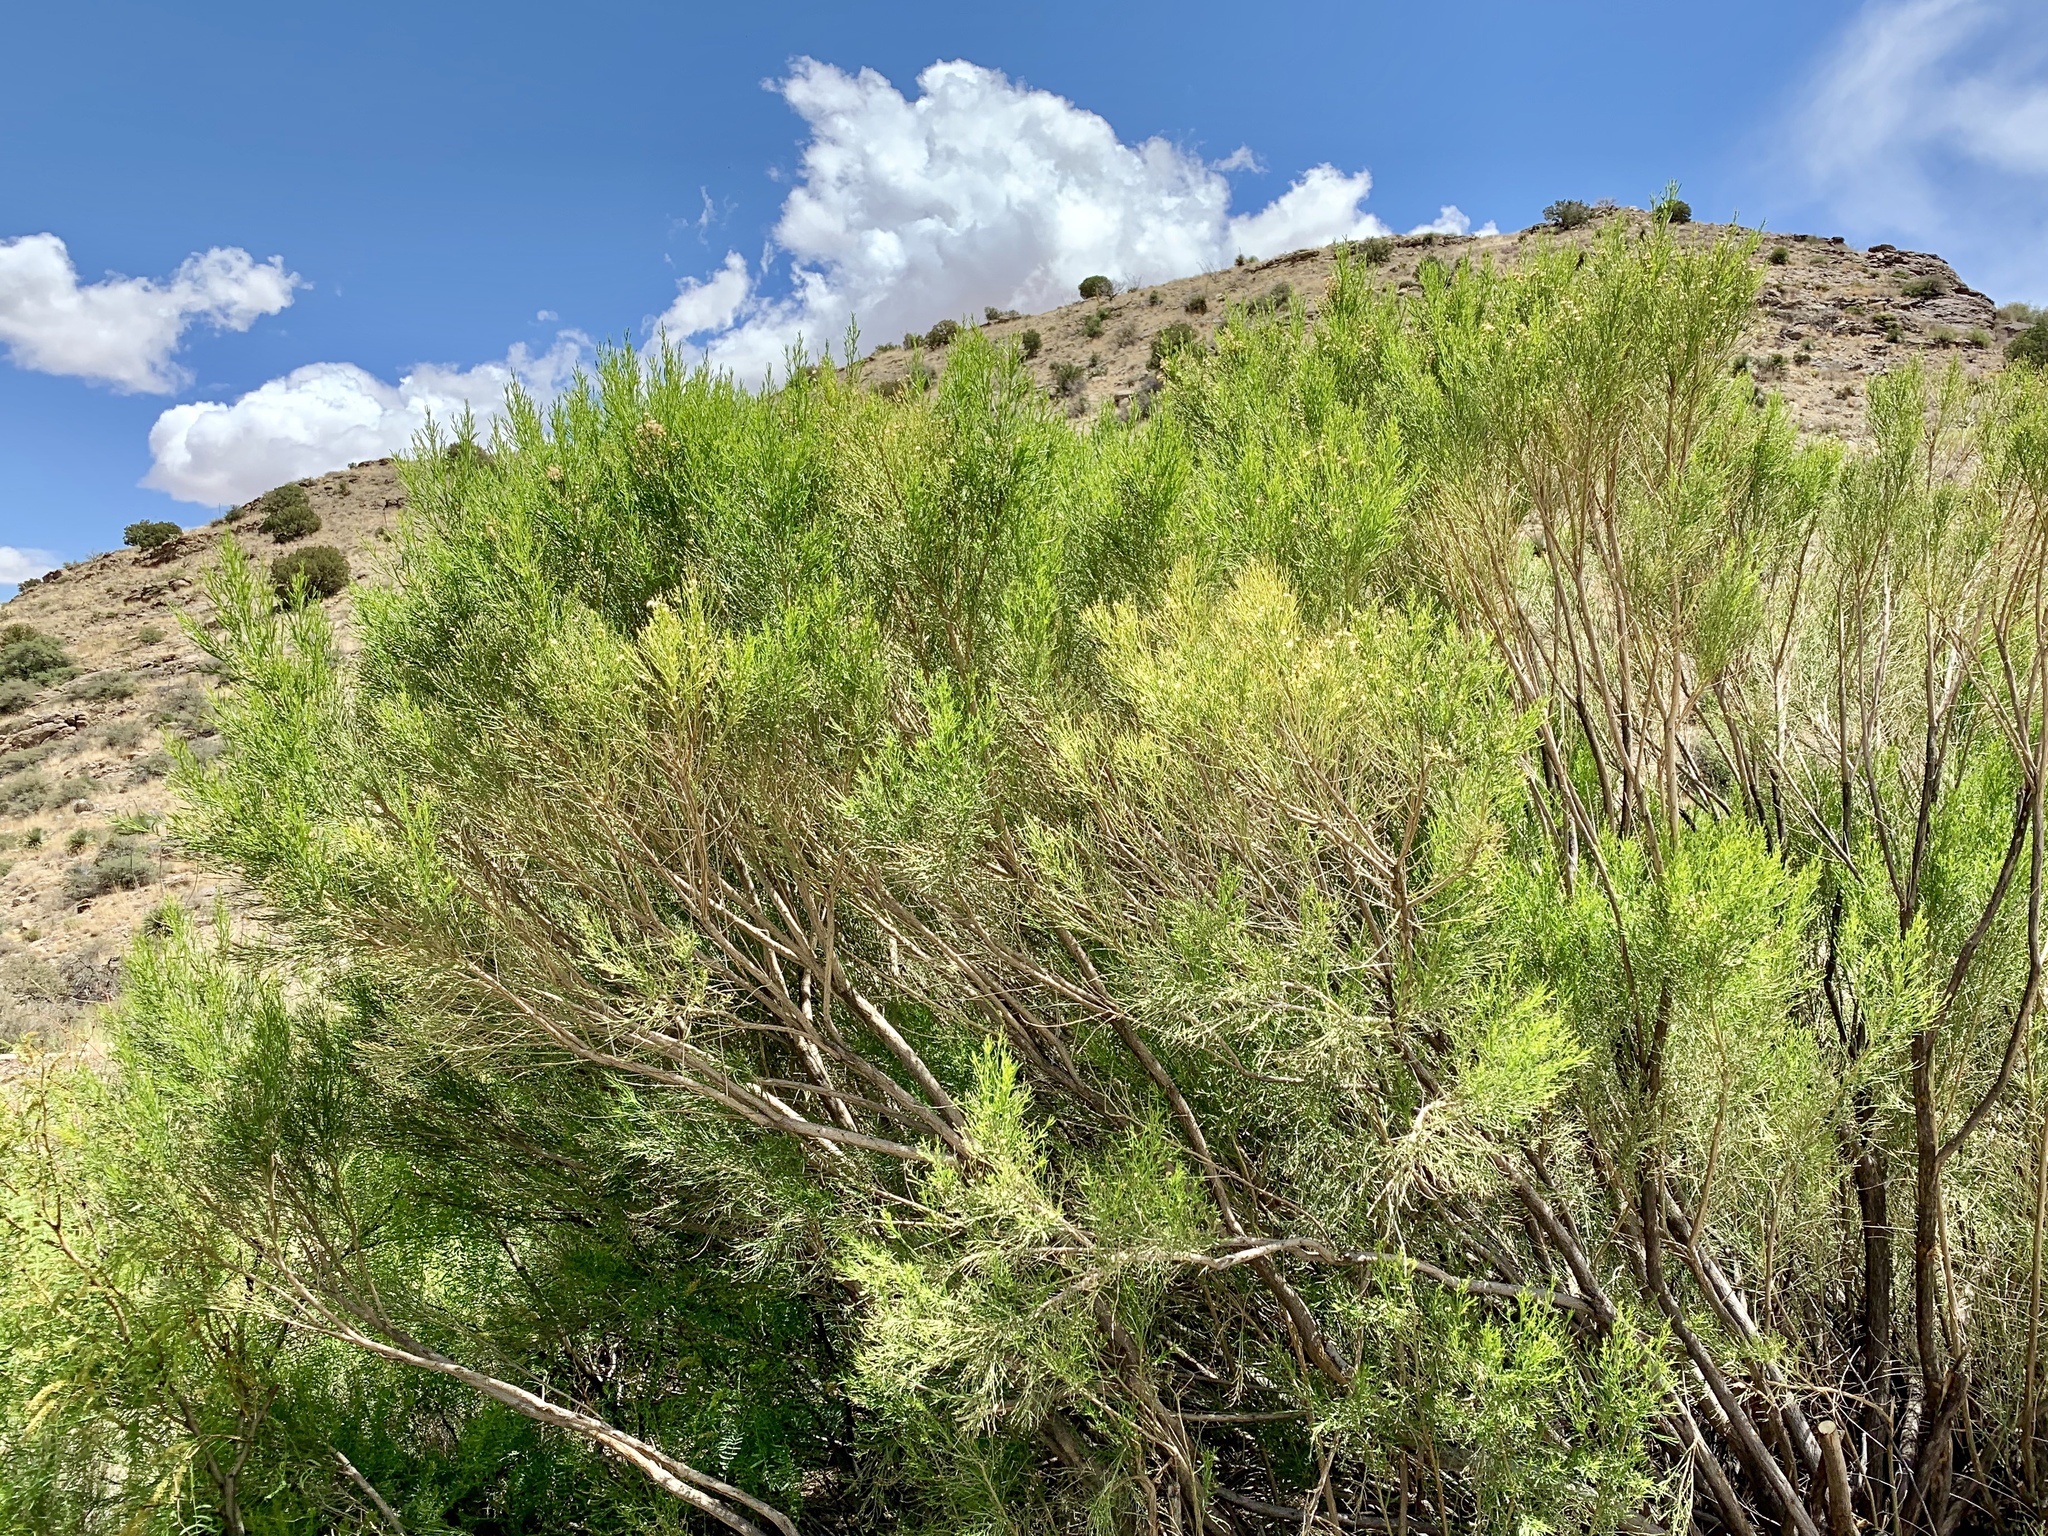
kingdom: Plantae
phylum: Tracheophyta
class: Magnoliopsida
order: Asterales
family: Asteraceae
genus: Baccharis
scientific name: Baccharis sarothroides
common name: Desert-broom
